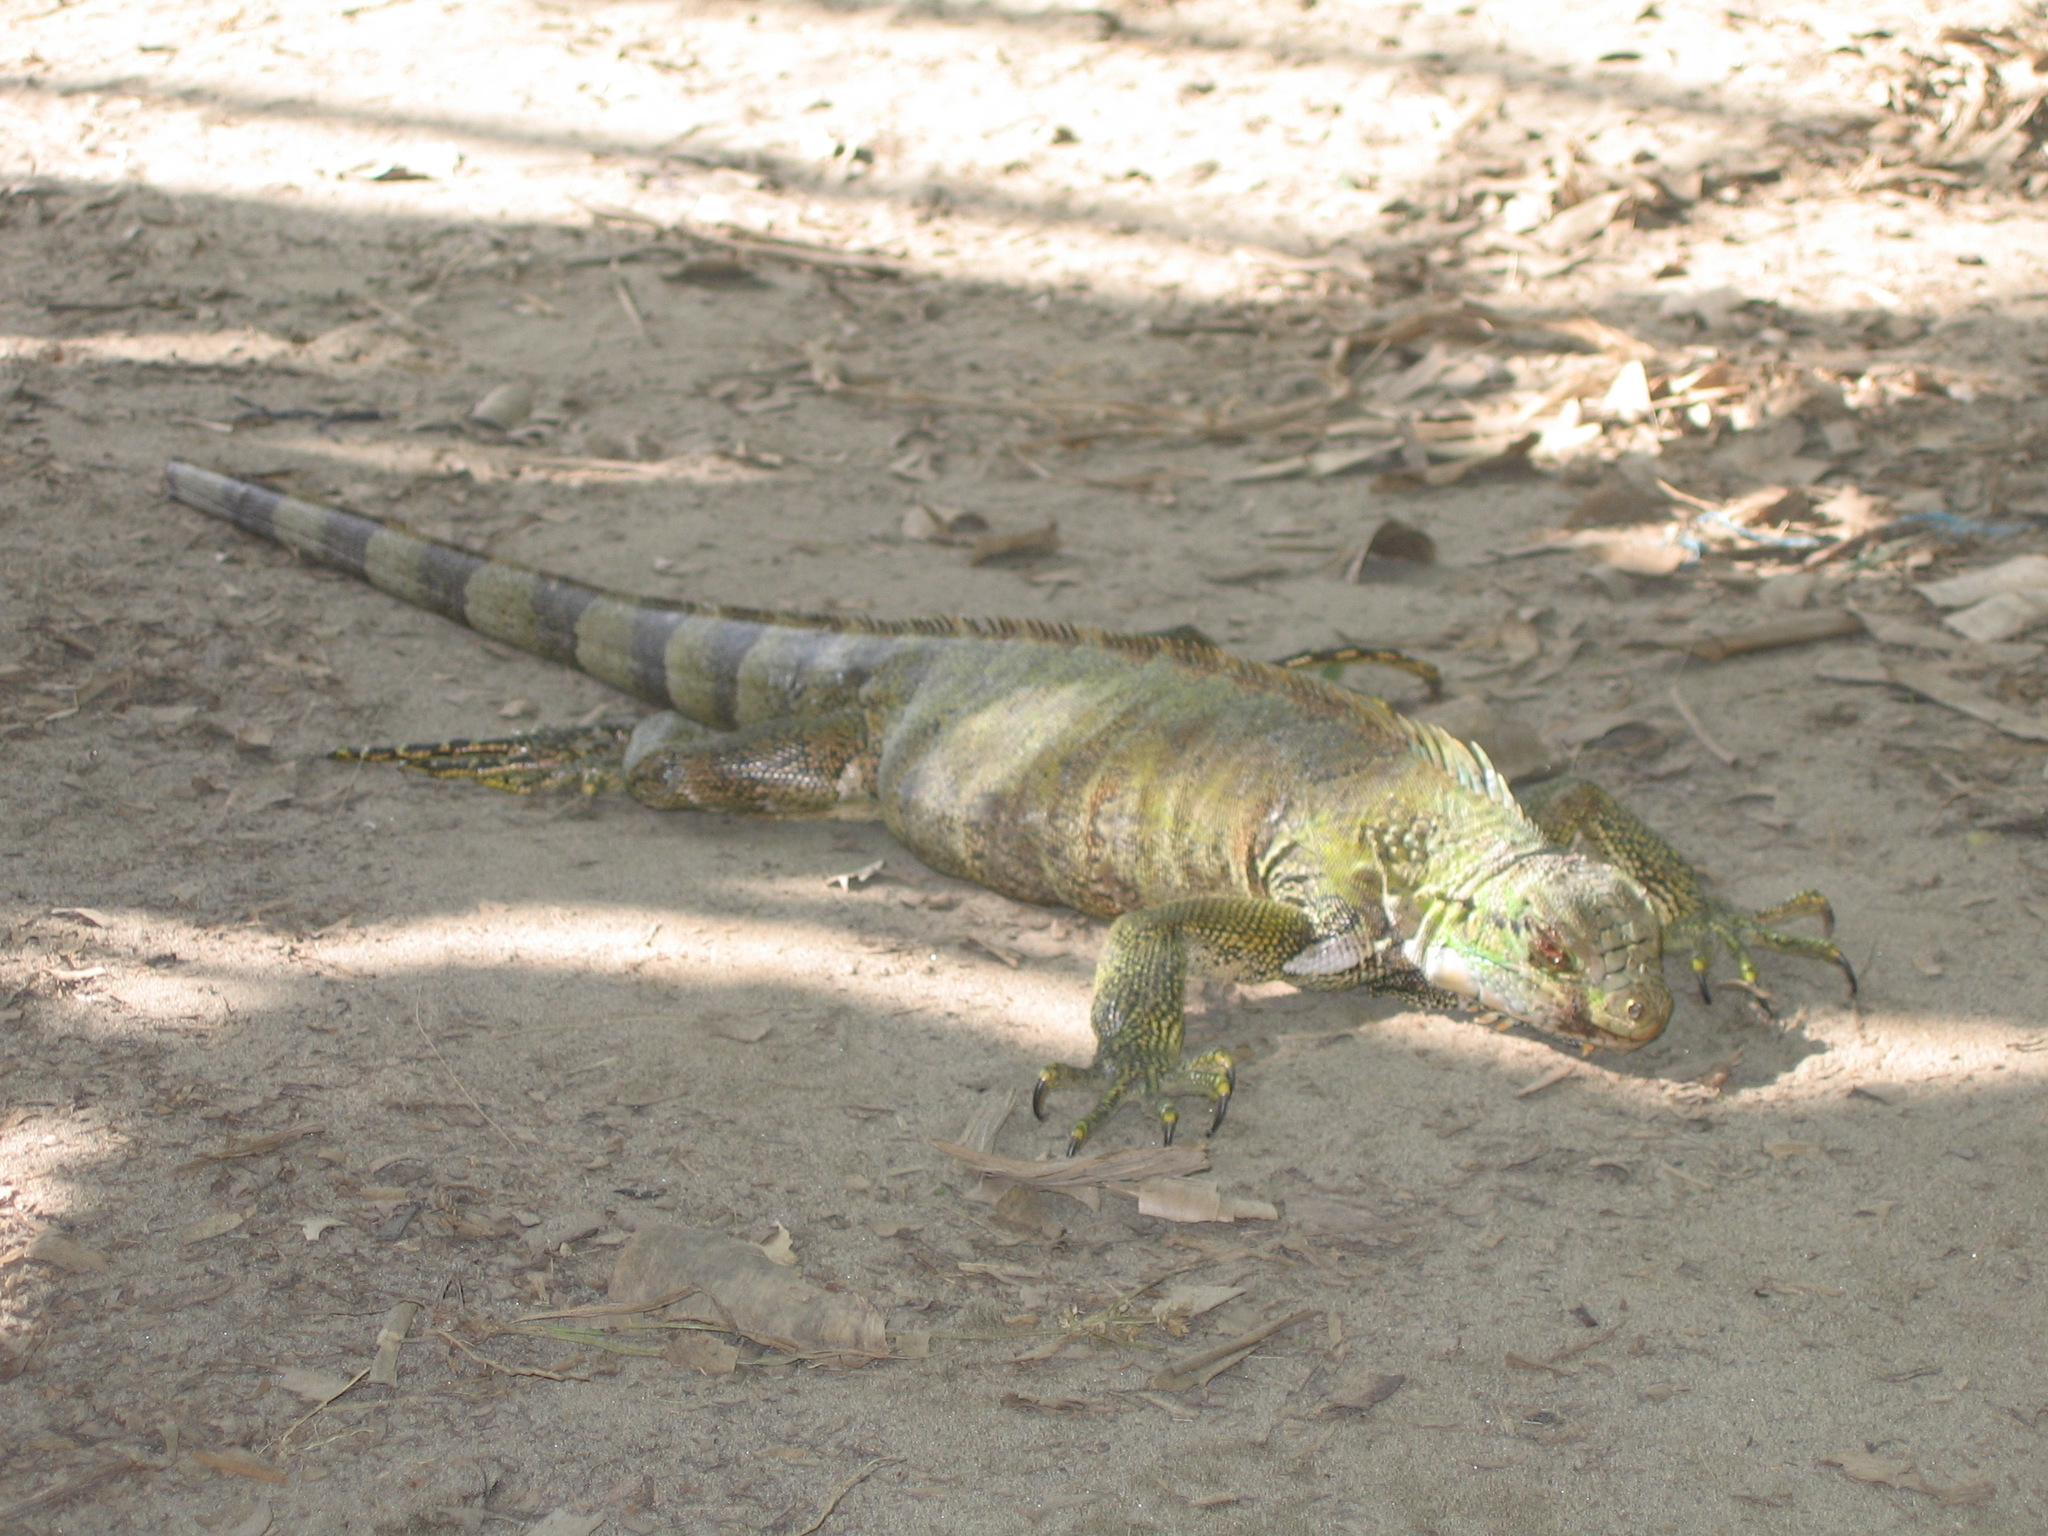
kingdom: Animalia
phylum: Chordata
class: Squamata
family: Iguanidae
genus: Iguana
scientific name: Iguana iguana
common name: Green iguana
